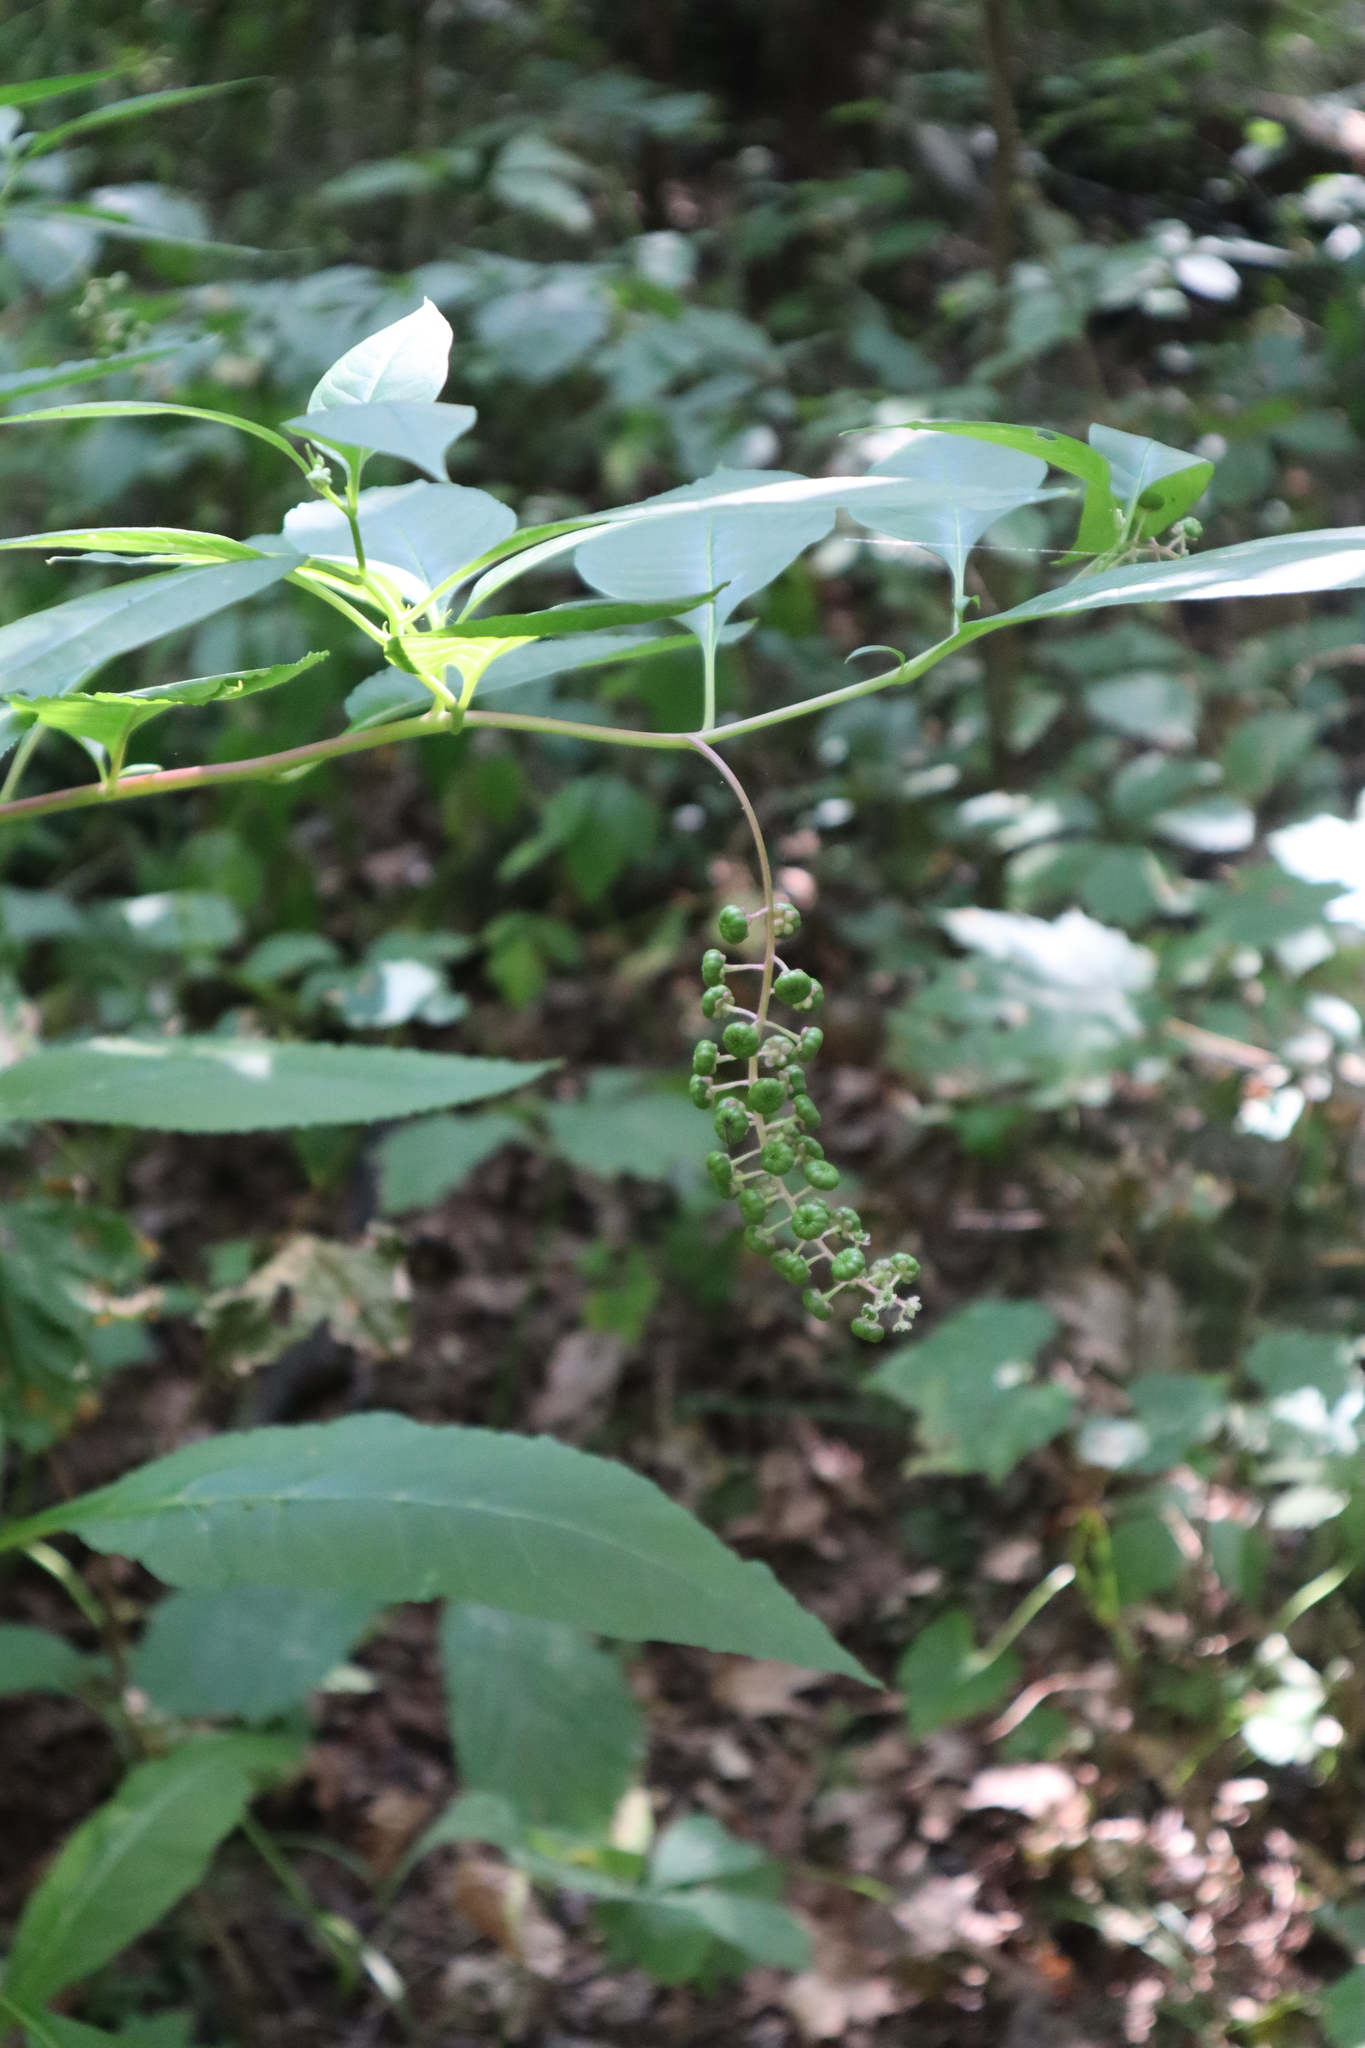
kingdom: Plantae
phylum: Tracheophyta
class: Magnoliopsida
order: Caryophyllales
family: Phytolaccaceae
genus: Phytolacca
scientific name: Phytolacca americana
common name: American pokeweed
